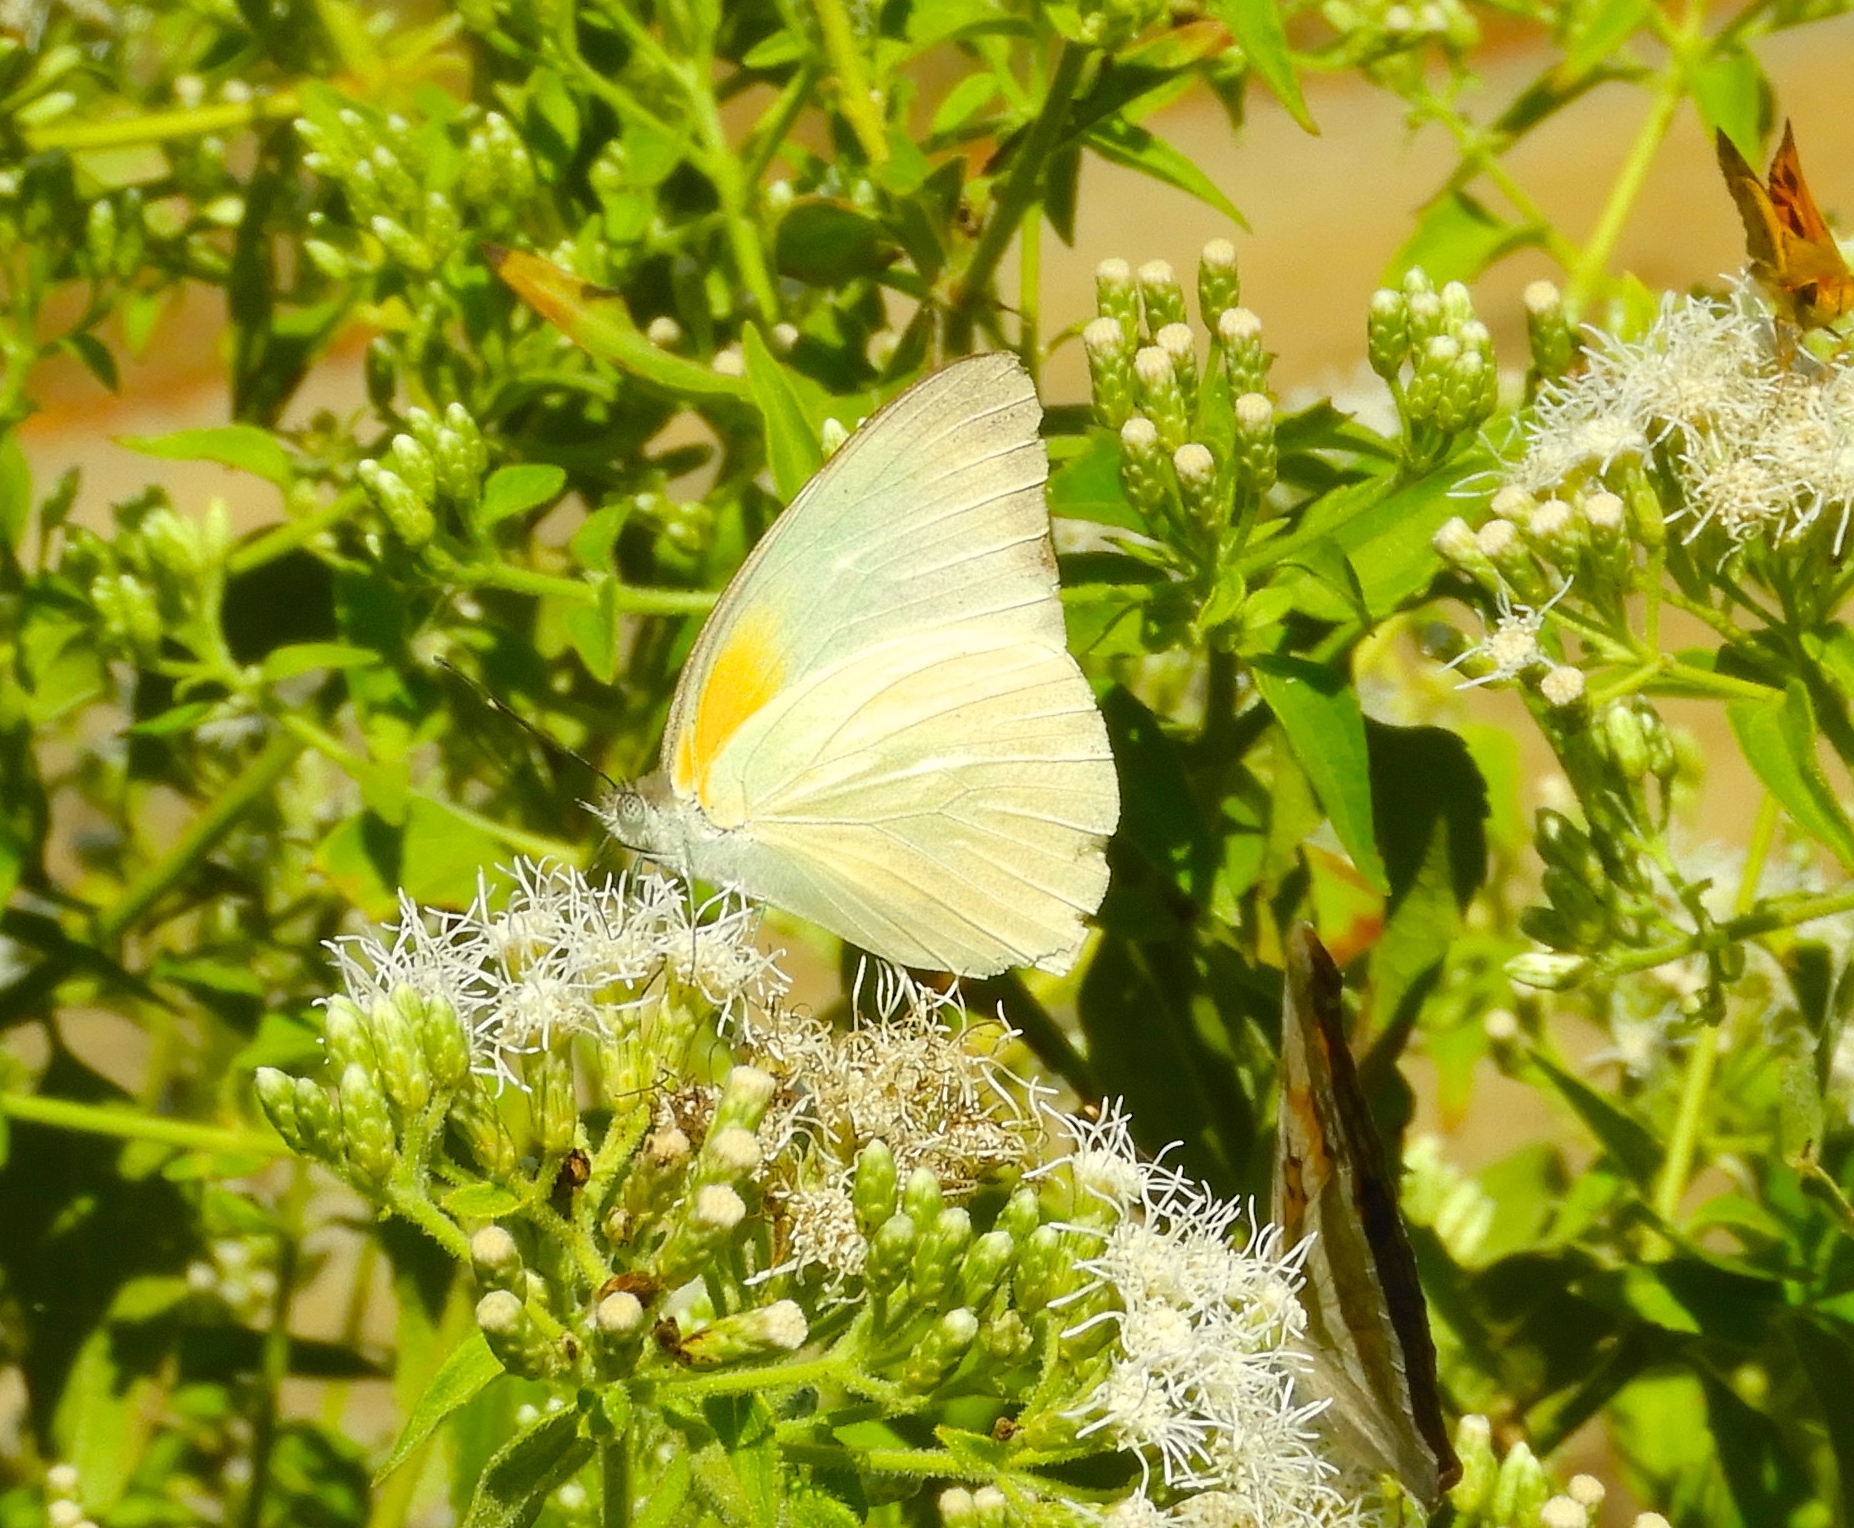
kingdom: Animalia
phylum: Arthropoda
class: Insecta
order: Lepidoptera
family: Pieridae
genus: Glutophrissa
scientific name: Glutophrissa drusilla
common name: Florida white
